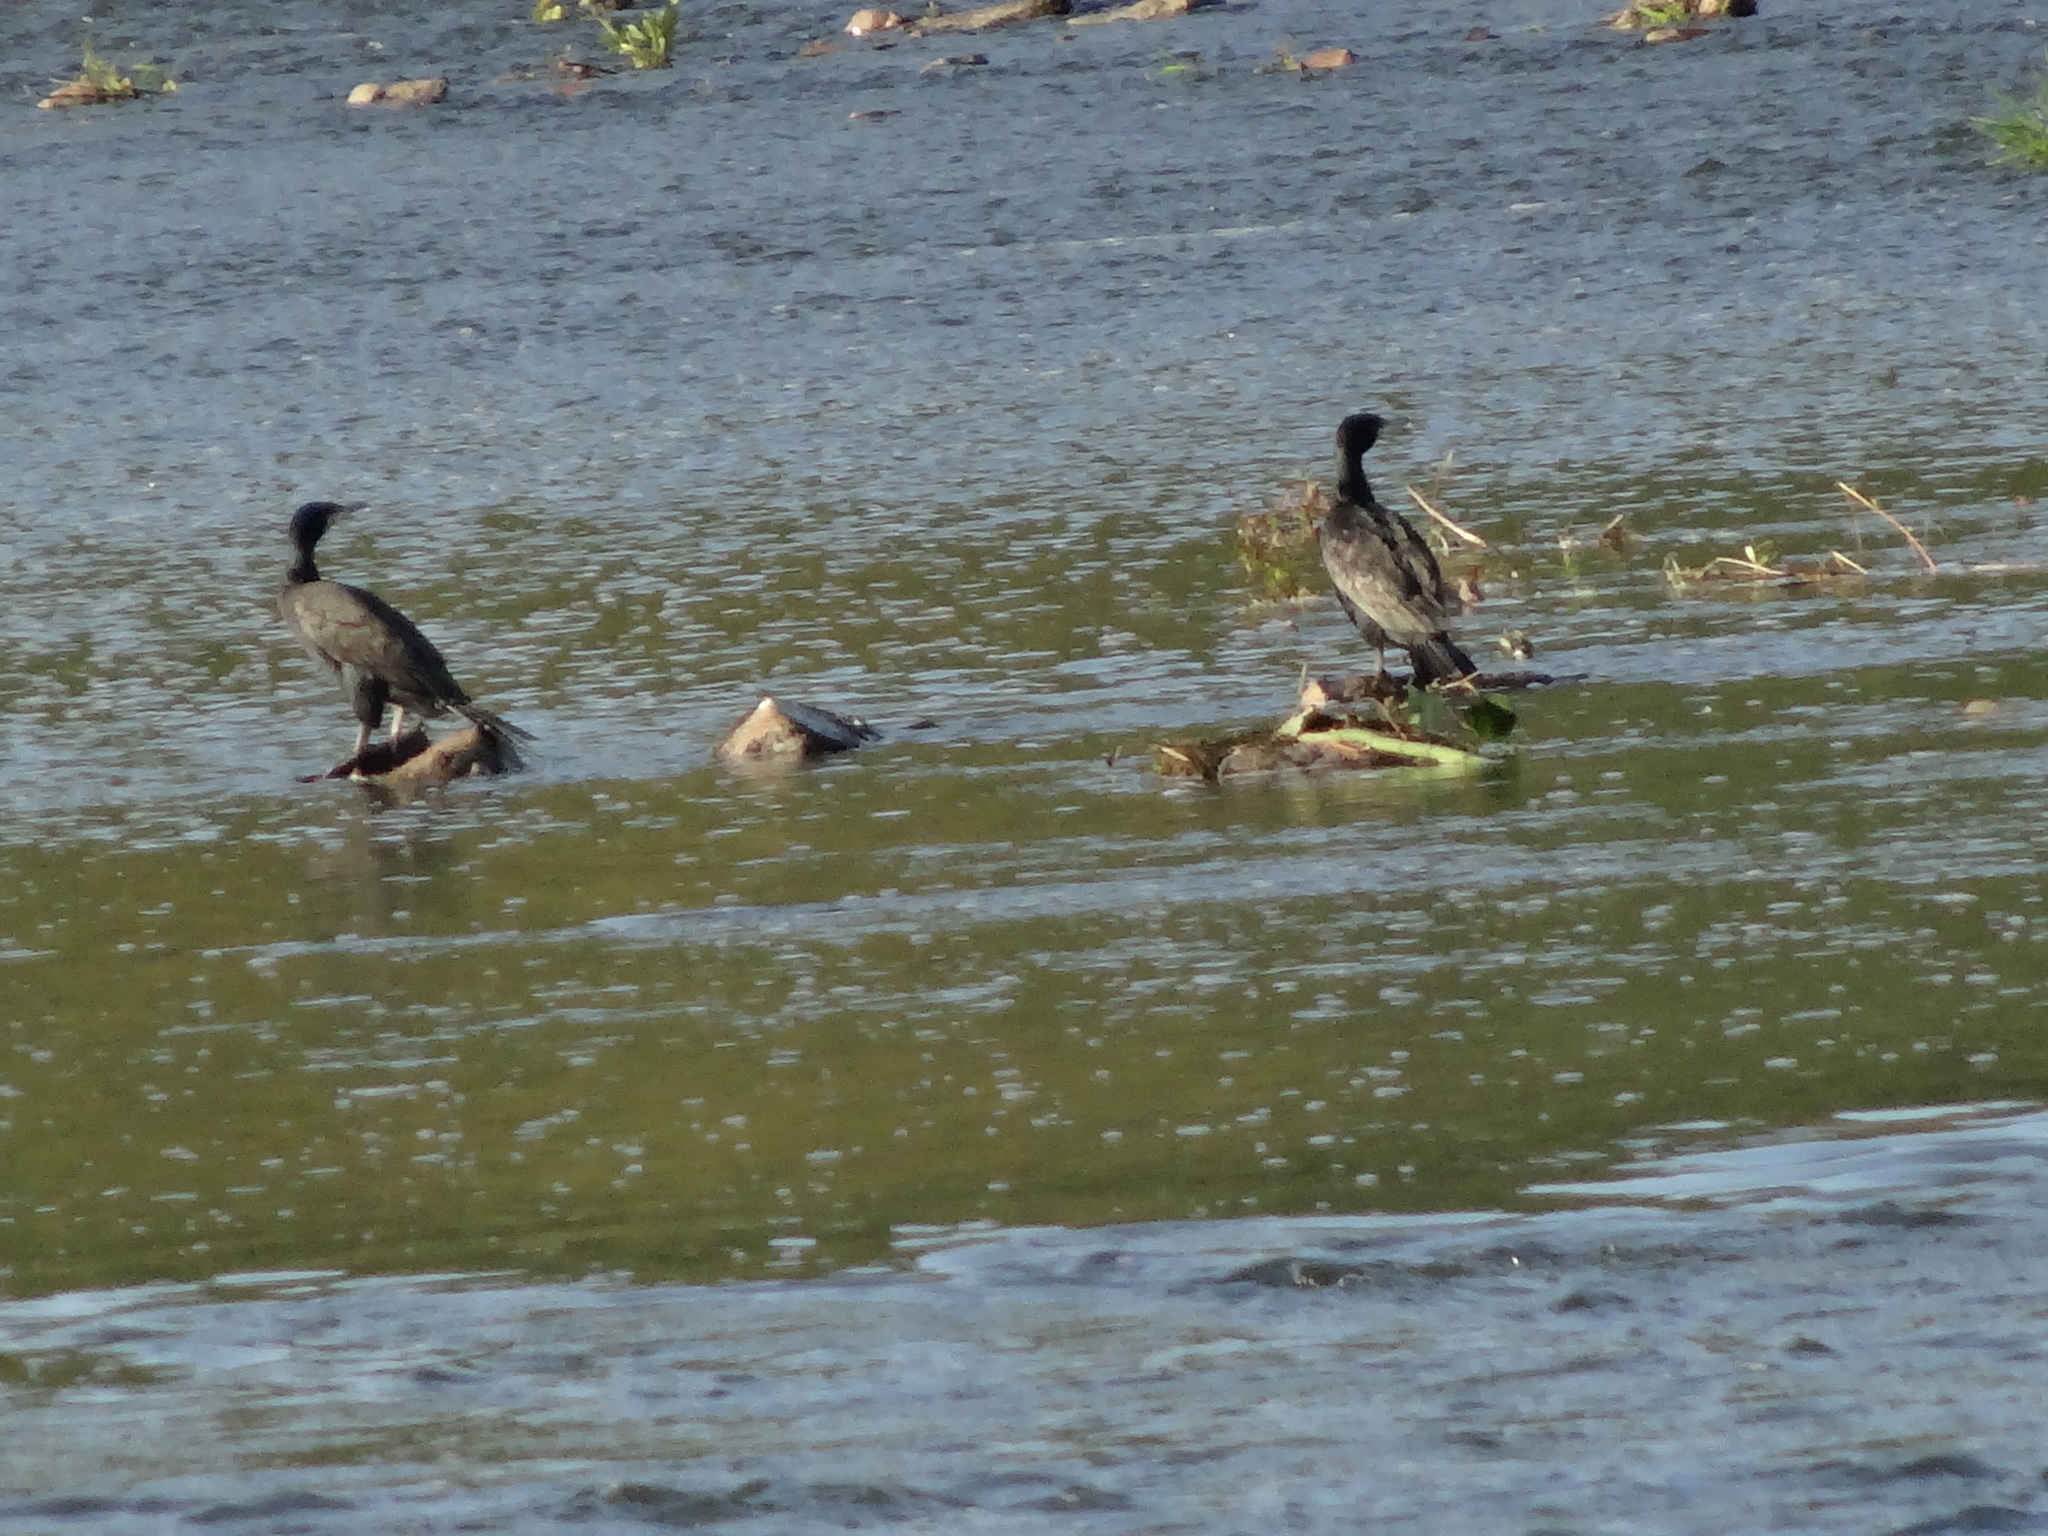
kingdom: Animalia
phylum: Chordata
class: Aves
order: Suliformes
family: Phalacrocoracidae
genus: Phalacrocorax
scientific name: Phalacrocorax carbo
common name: Great cormorant
